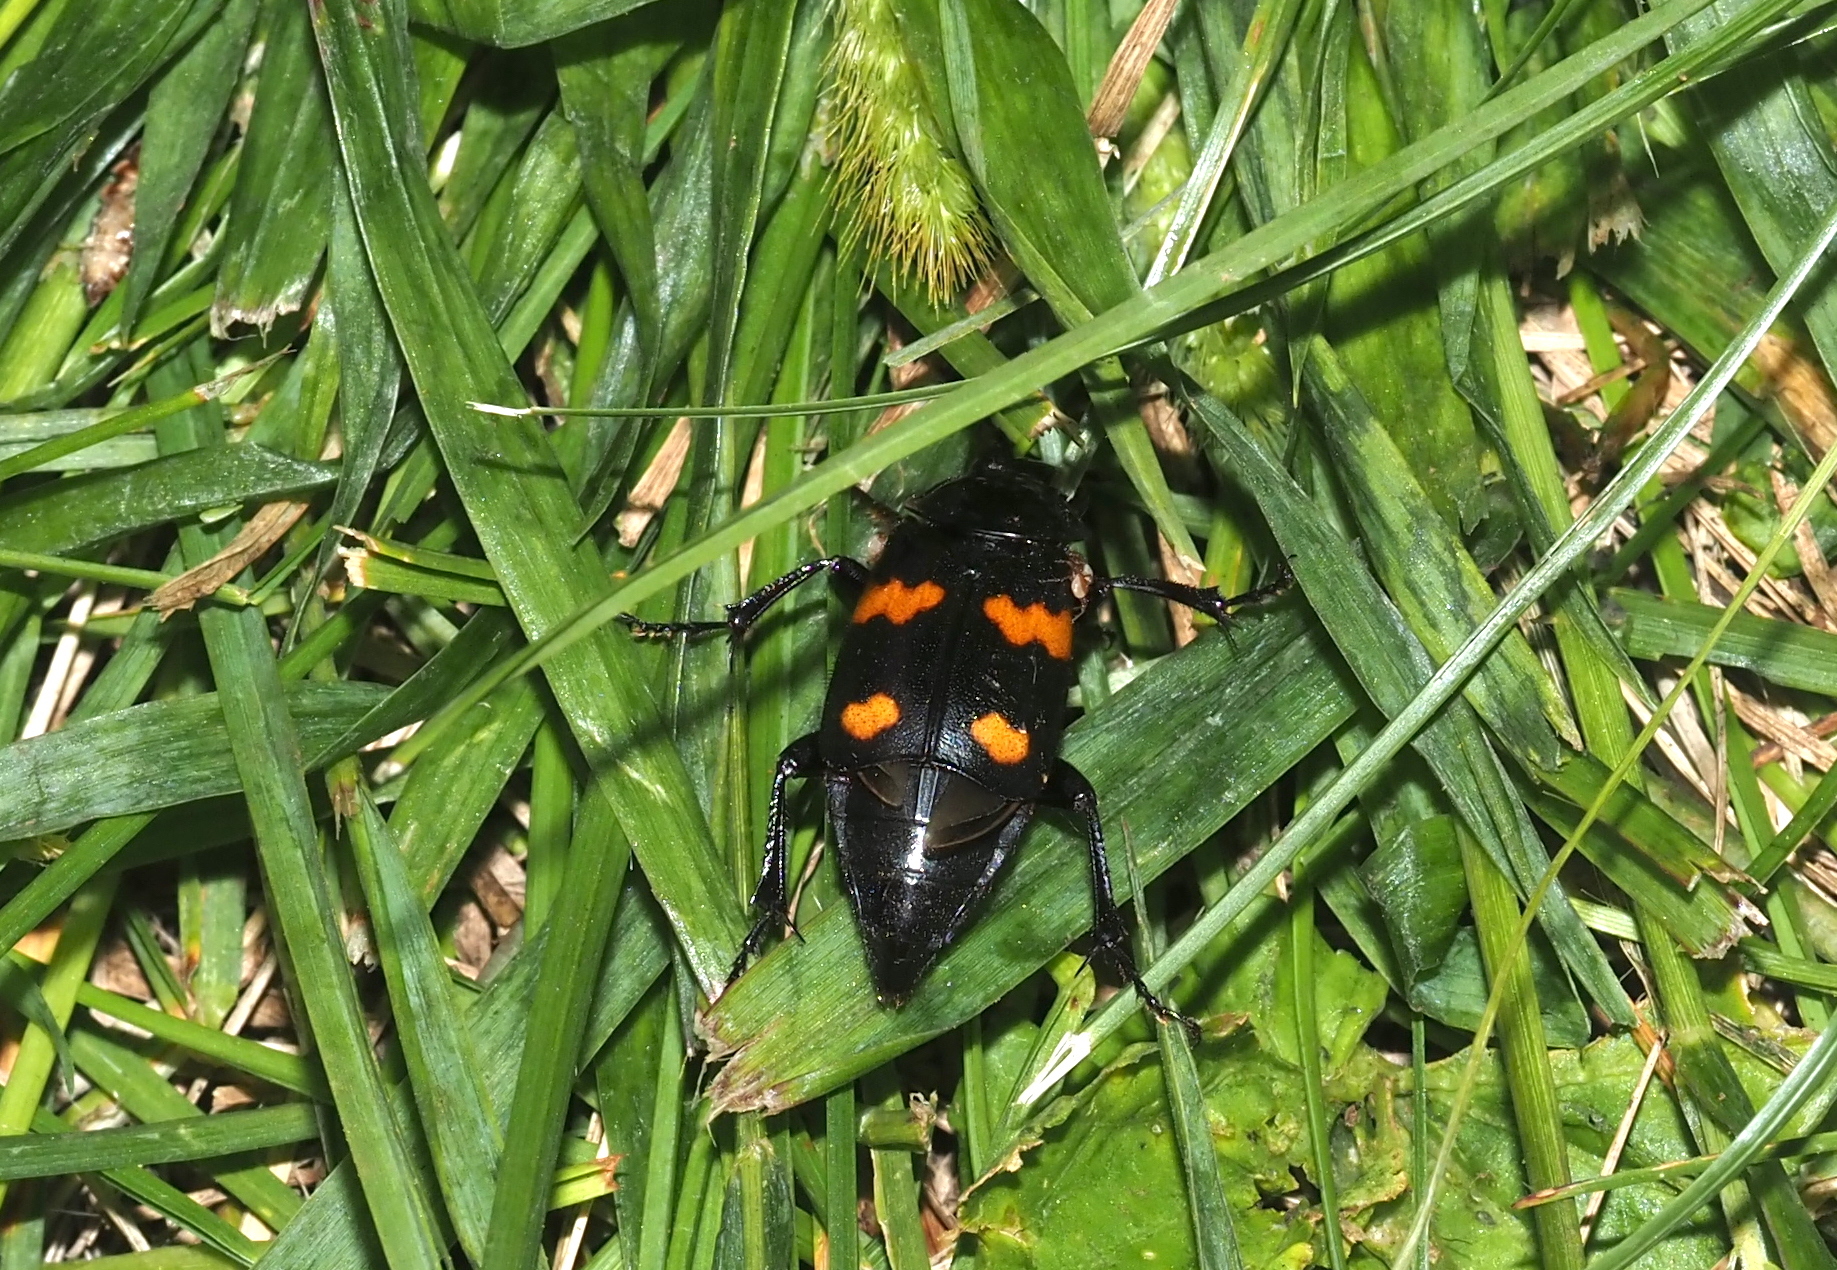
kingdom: Animalia
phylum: Arthropoda
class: Insecta
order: Coleoptera
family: Staphylinidae
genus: Nicrophorus
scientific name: Nicrophorus orbicollis
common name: Roundneck sexton beetle
